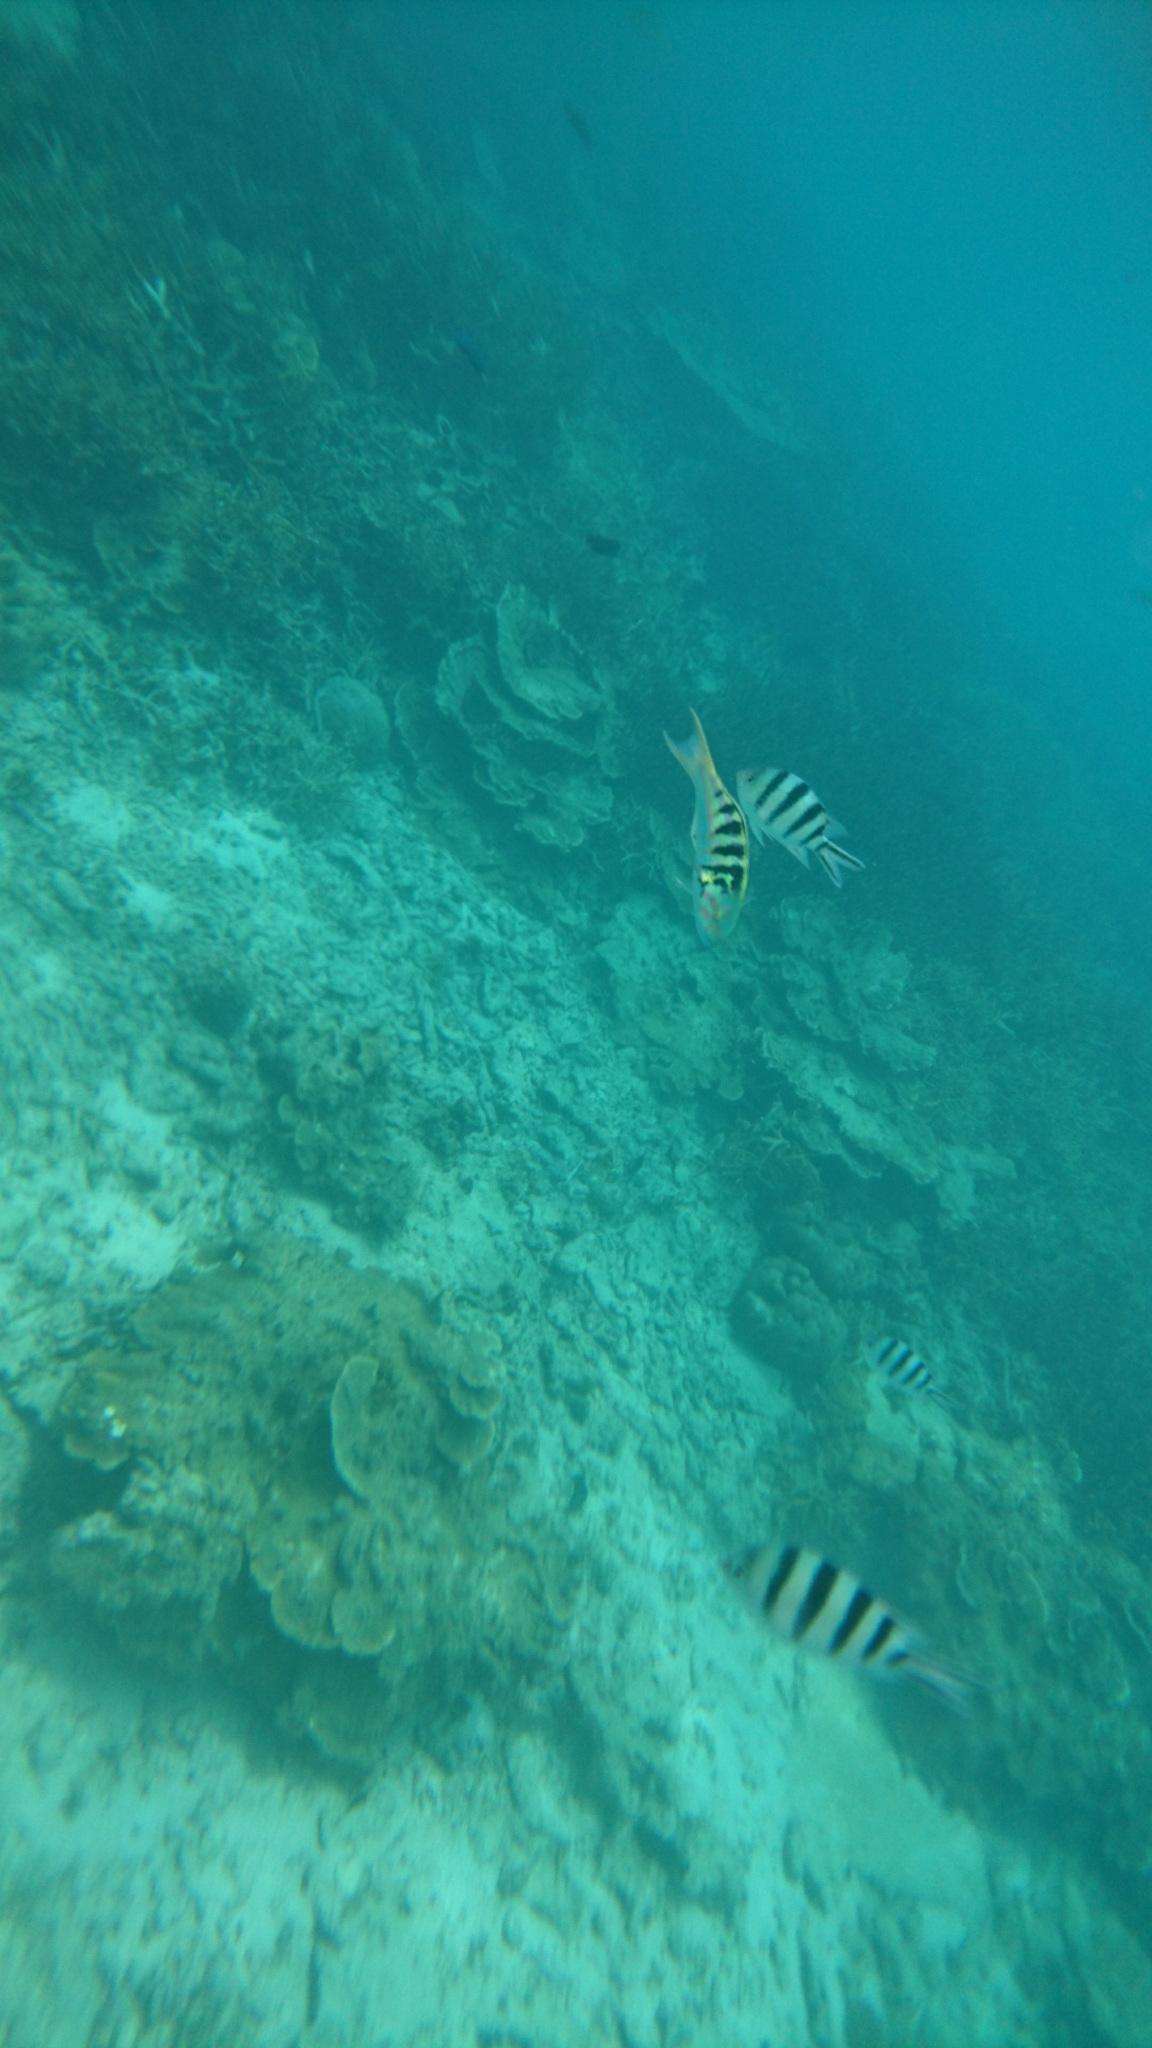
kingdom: Animalia
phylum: Chordata
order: Perciformes
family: Labridae
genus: Thalassoma
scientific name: Thalassoma hardwicke
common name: Sixbar wrasse
